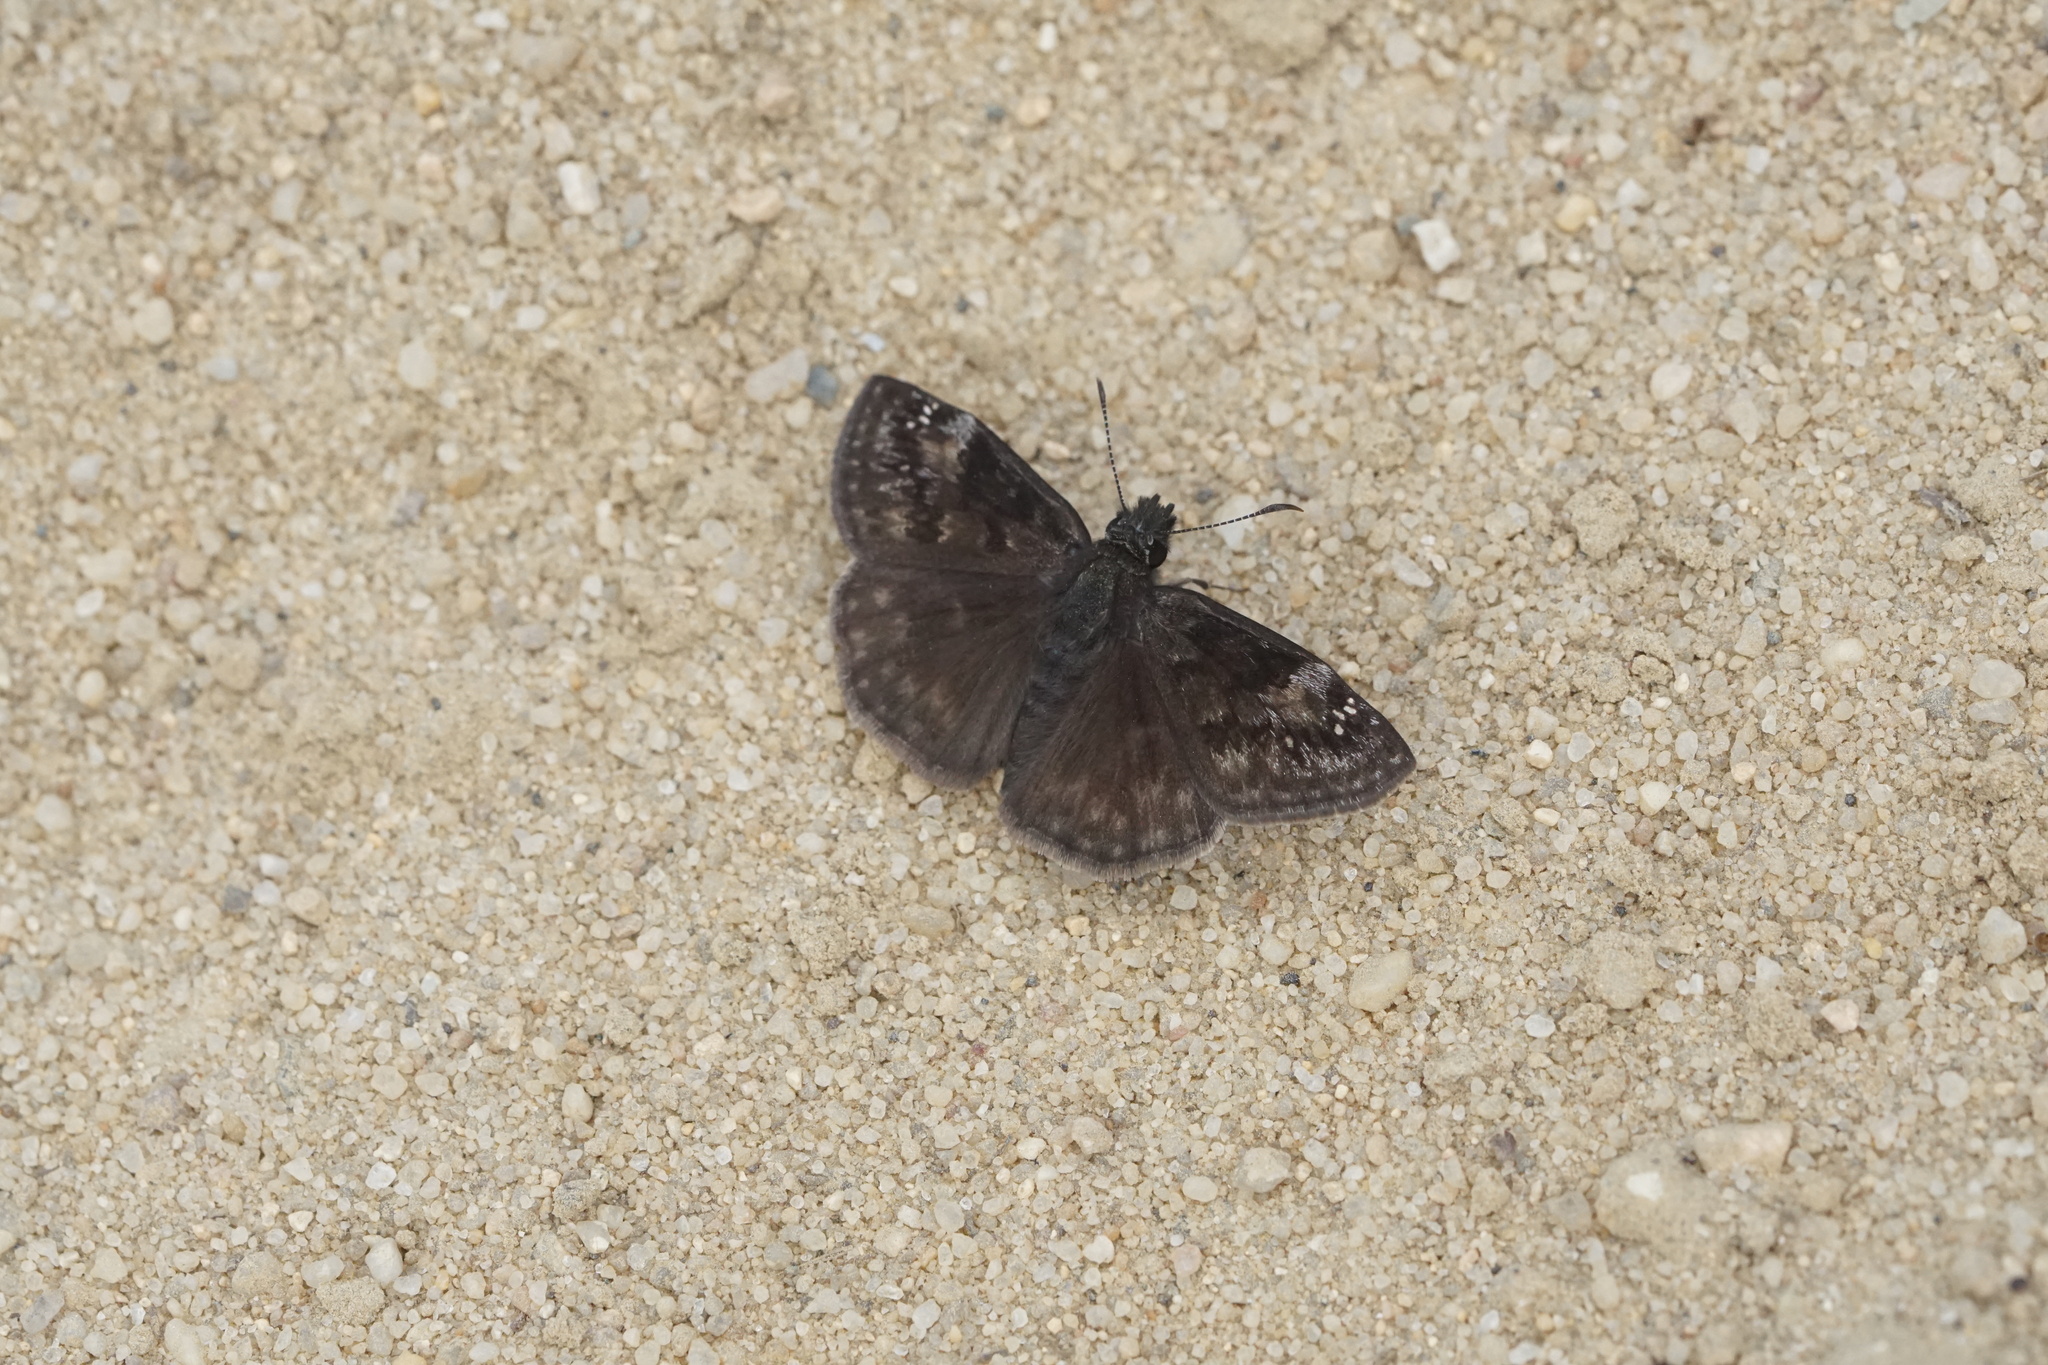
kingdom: Animalia
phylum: Arthropoda
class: Insecta
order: Lepidoptera
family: Hesperiidae
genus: Erynnis
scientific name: Erynnis baptisiae
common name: Wild indigo duskywing
